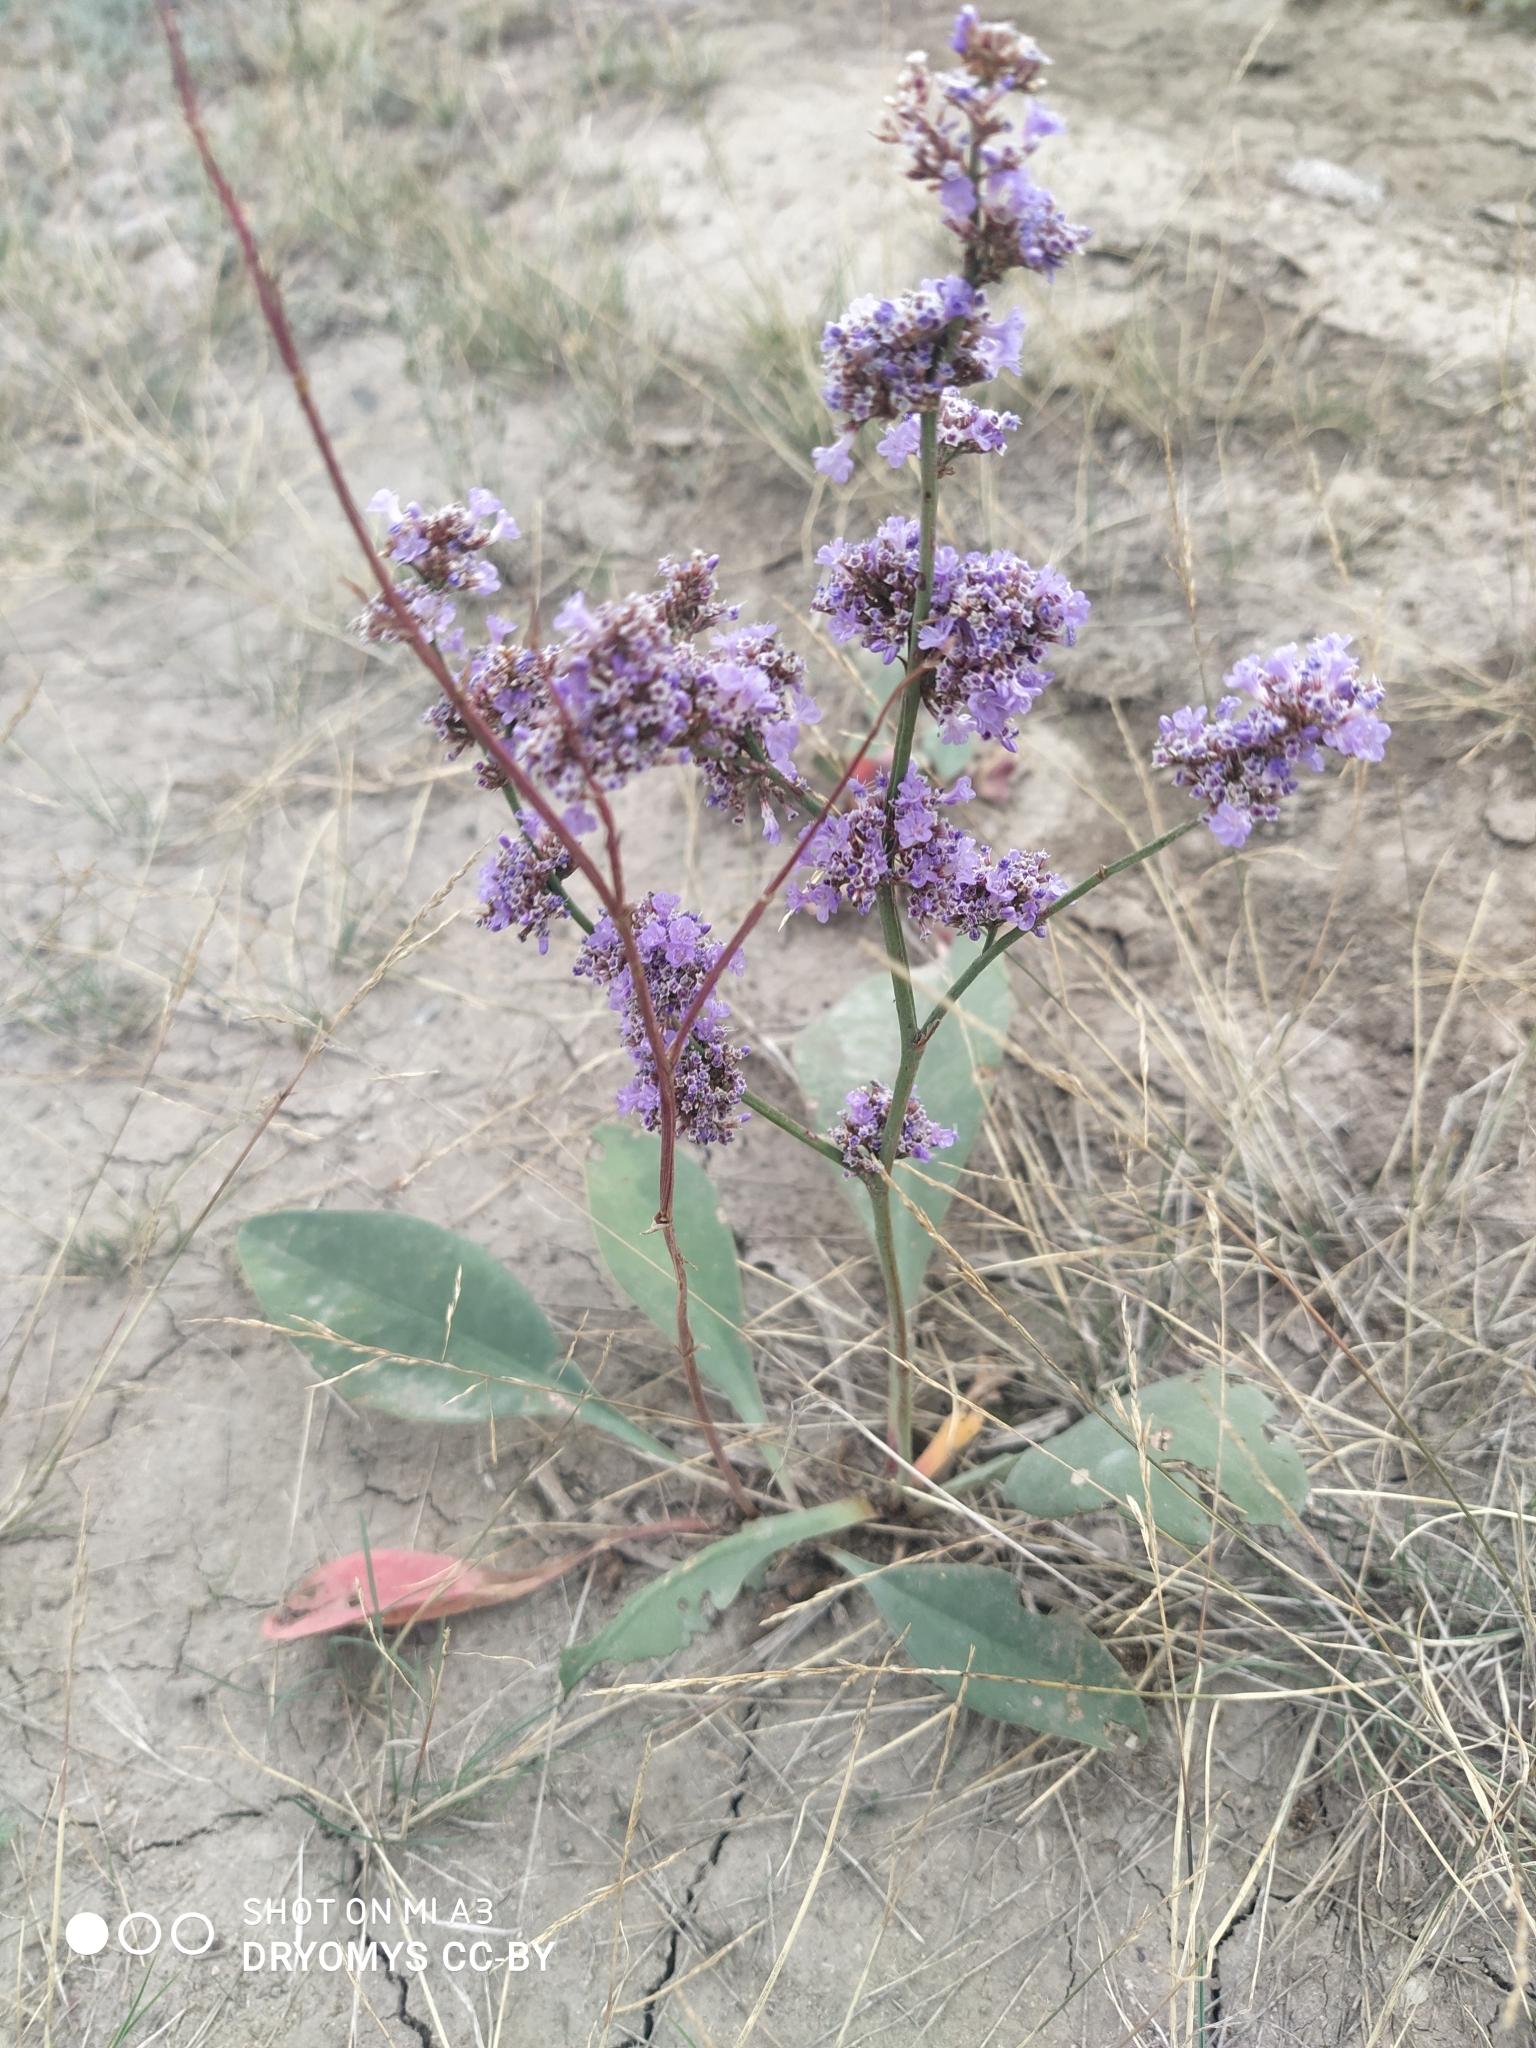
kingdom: Plantae
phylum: Tracheophyta
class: Magnoliopsida
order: Caryophyllales
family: Plumbaginaceae
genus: Limonium
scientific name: Limonium gmelini
